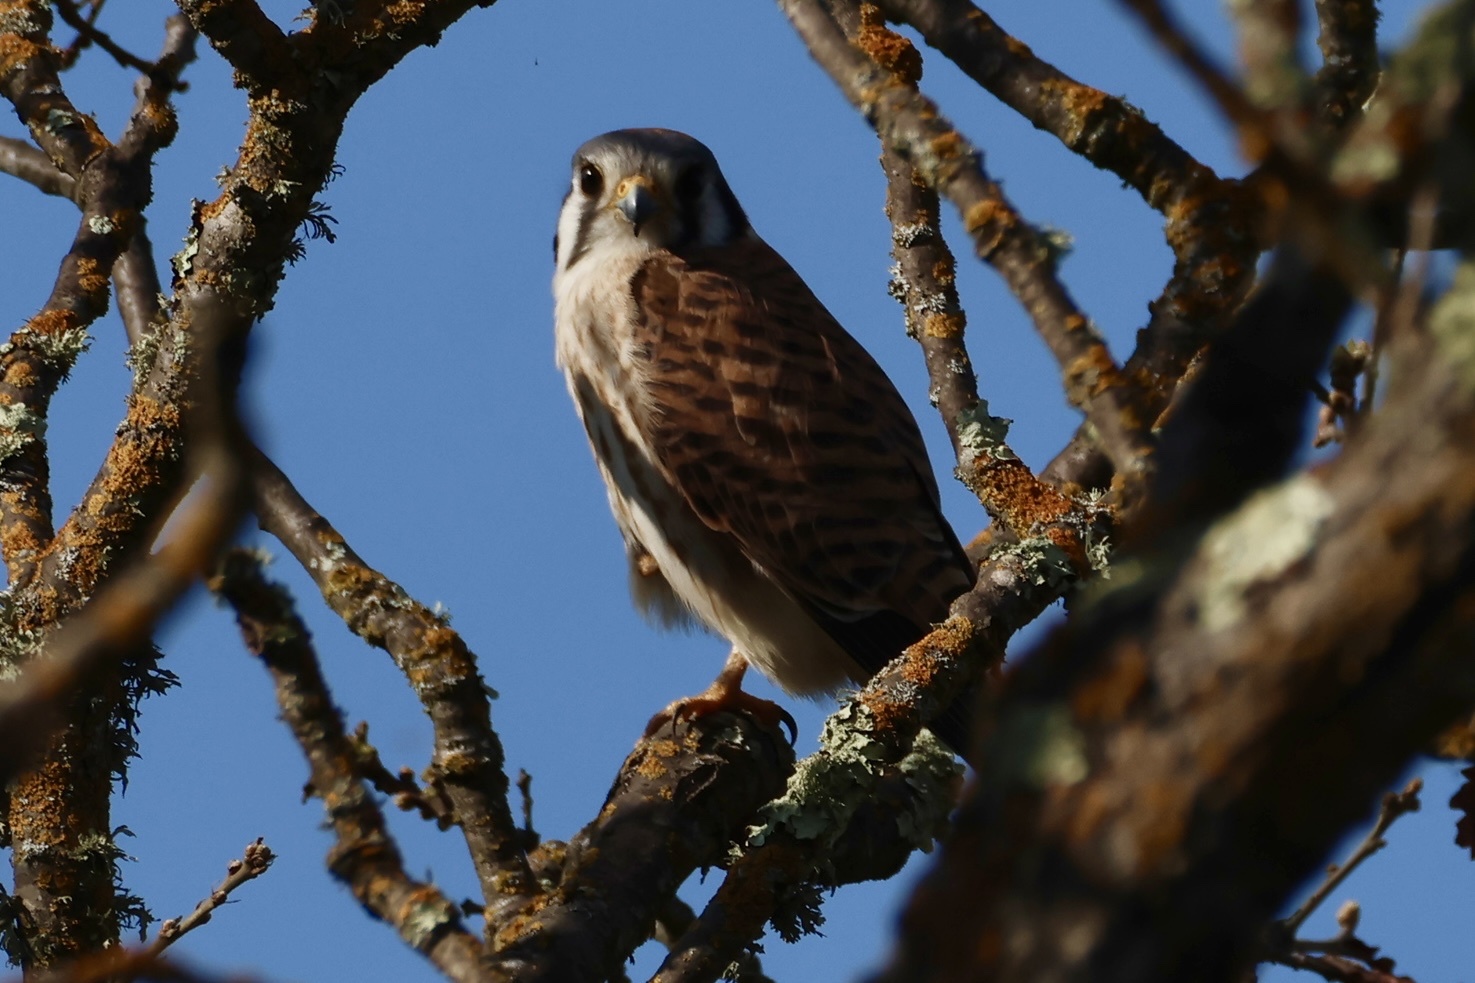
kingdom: Animalia
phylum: Chordata
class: Aves
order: Falconiformes
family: Falconidae
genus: Falco
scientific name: Falco sparverius
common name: American kestrel
